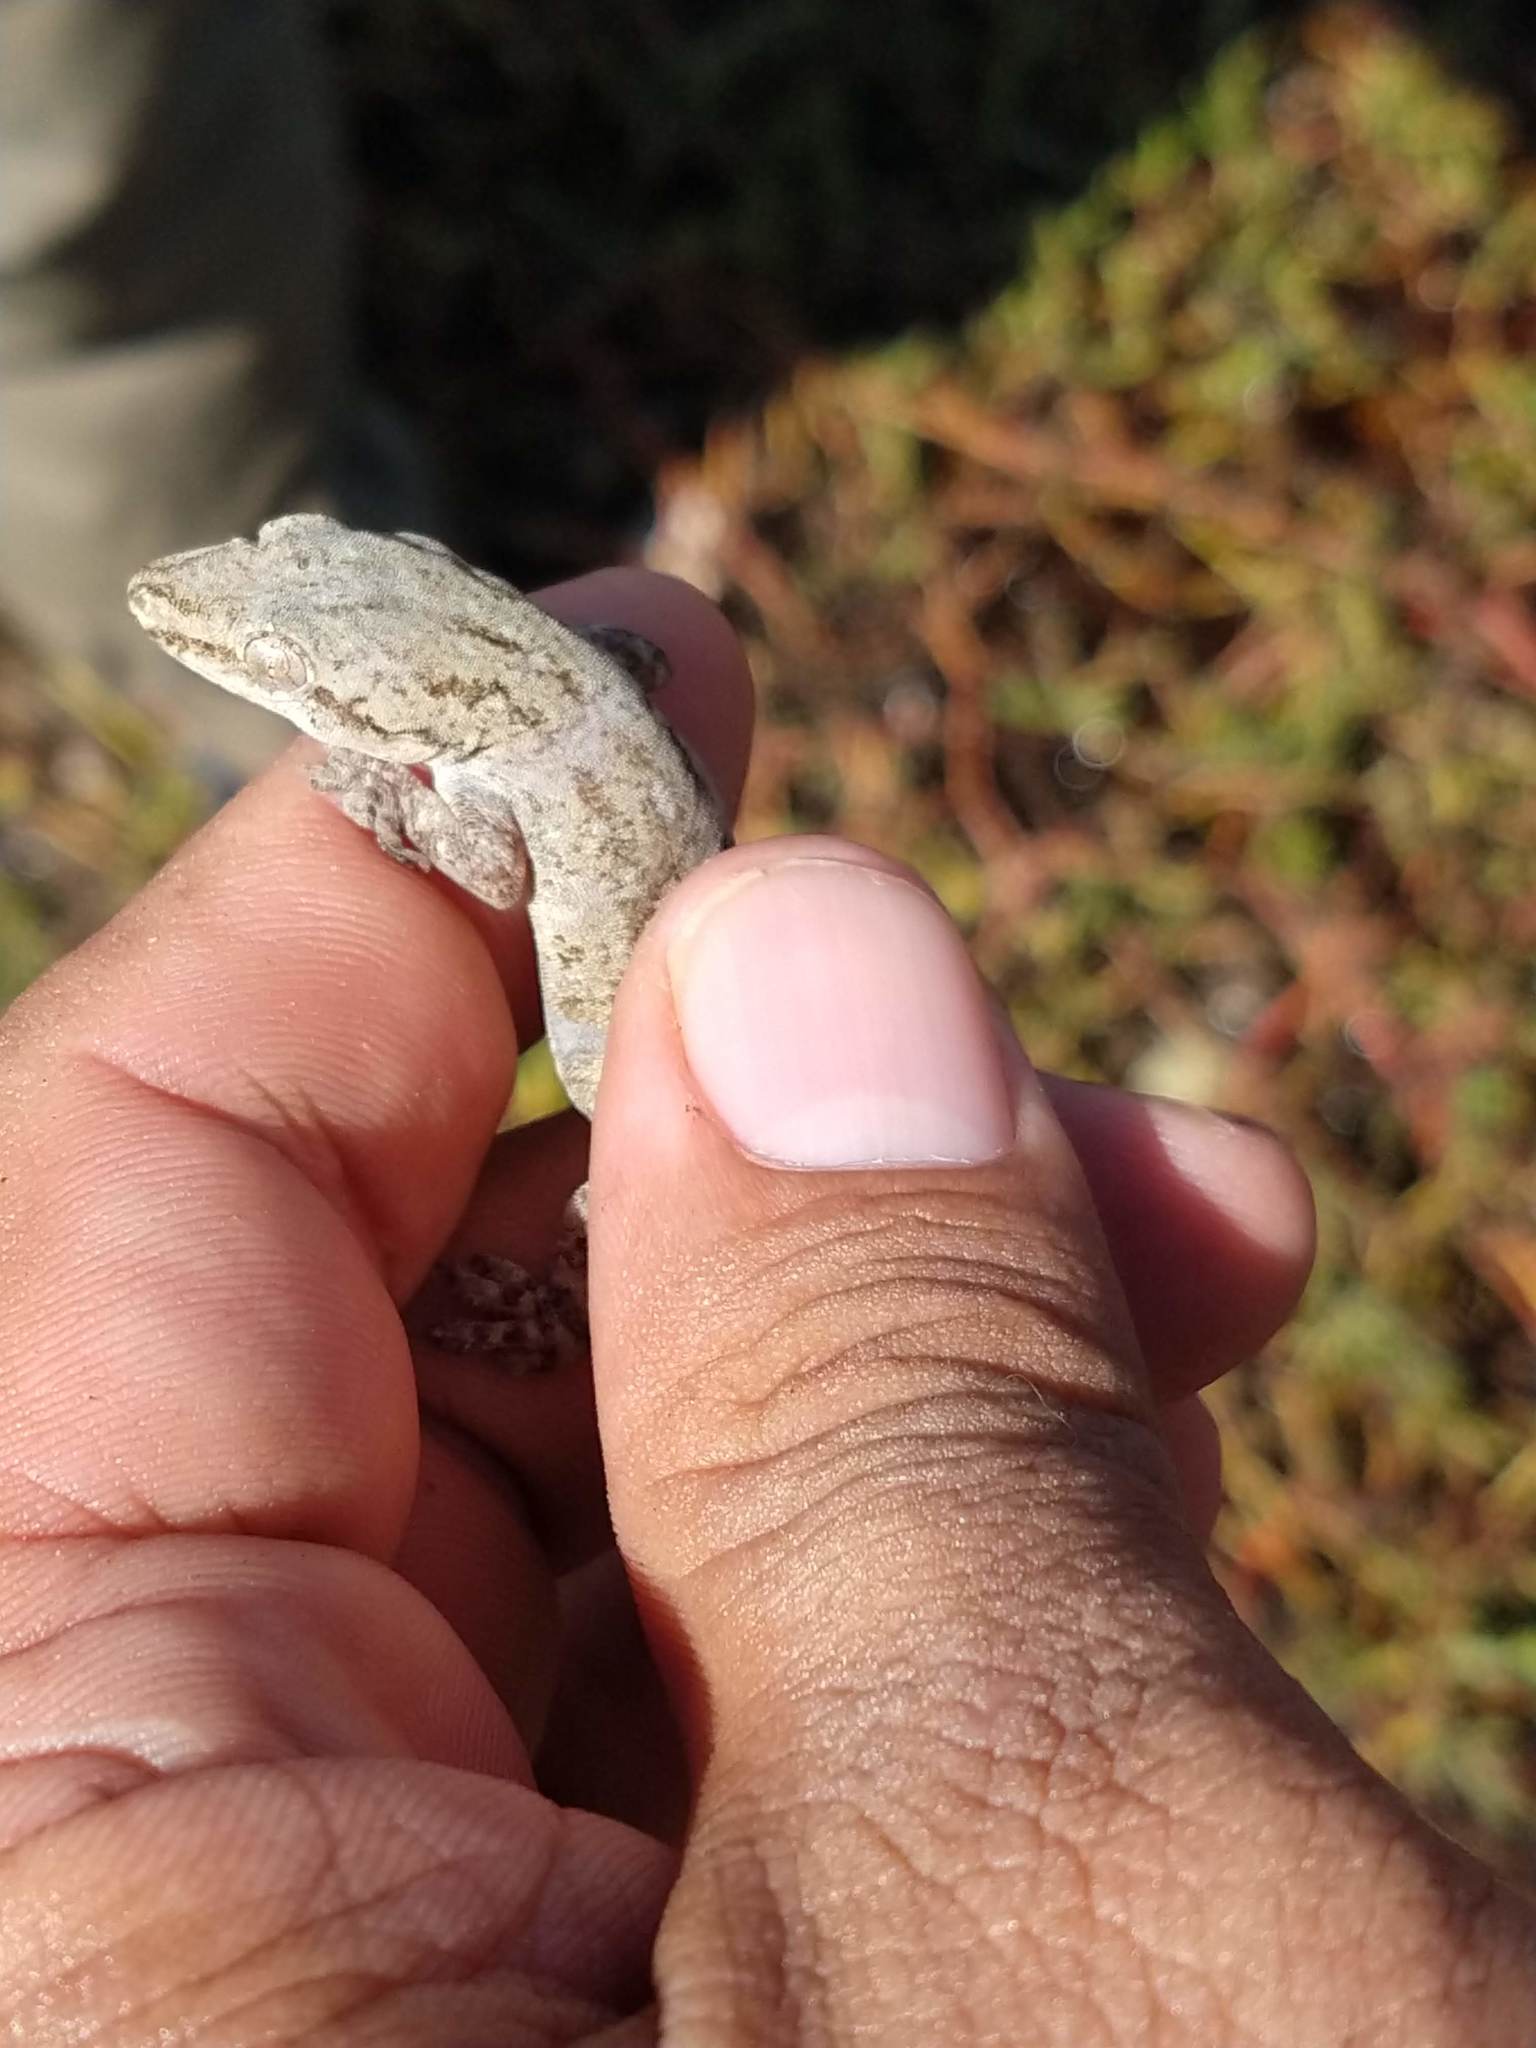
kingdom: Animalia
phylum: Chordata
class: Squamata
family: Gekkonidae
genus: Hemidactylus
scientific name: Hemidactylus frenatus
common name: Common house gecko
